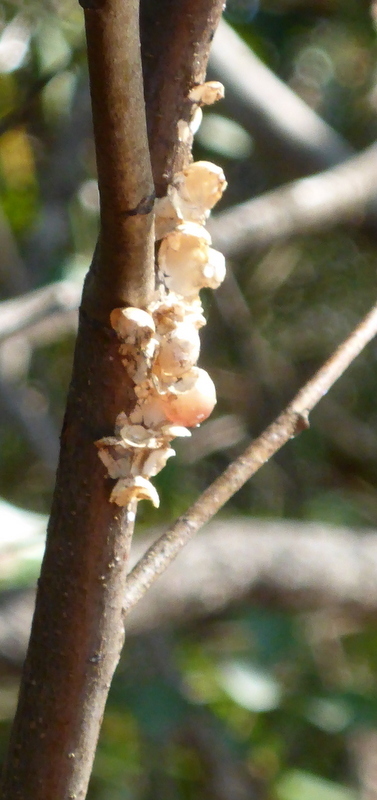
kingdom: Animalia
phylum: Mollusca
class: Gastropoda
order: Architaenioglossa
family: Ampullariidae
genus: Pomacea
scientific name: Pomacea paludosa
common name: Florida applesnail
